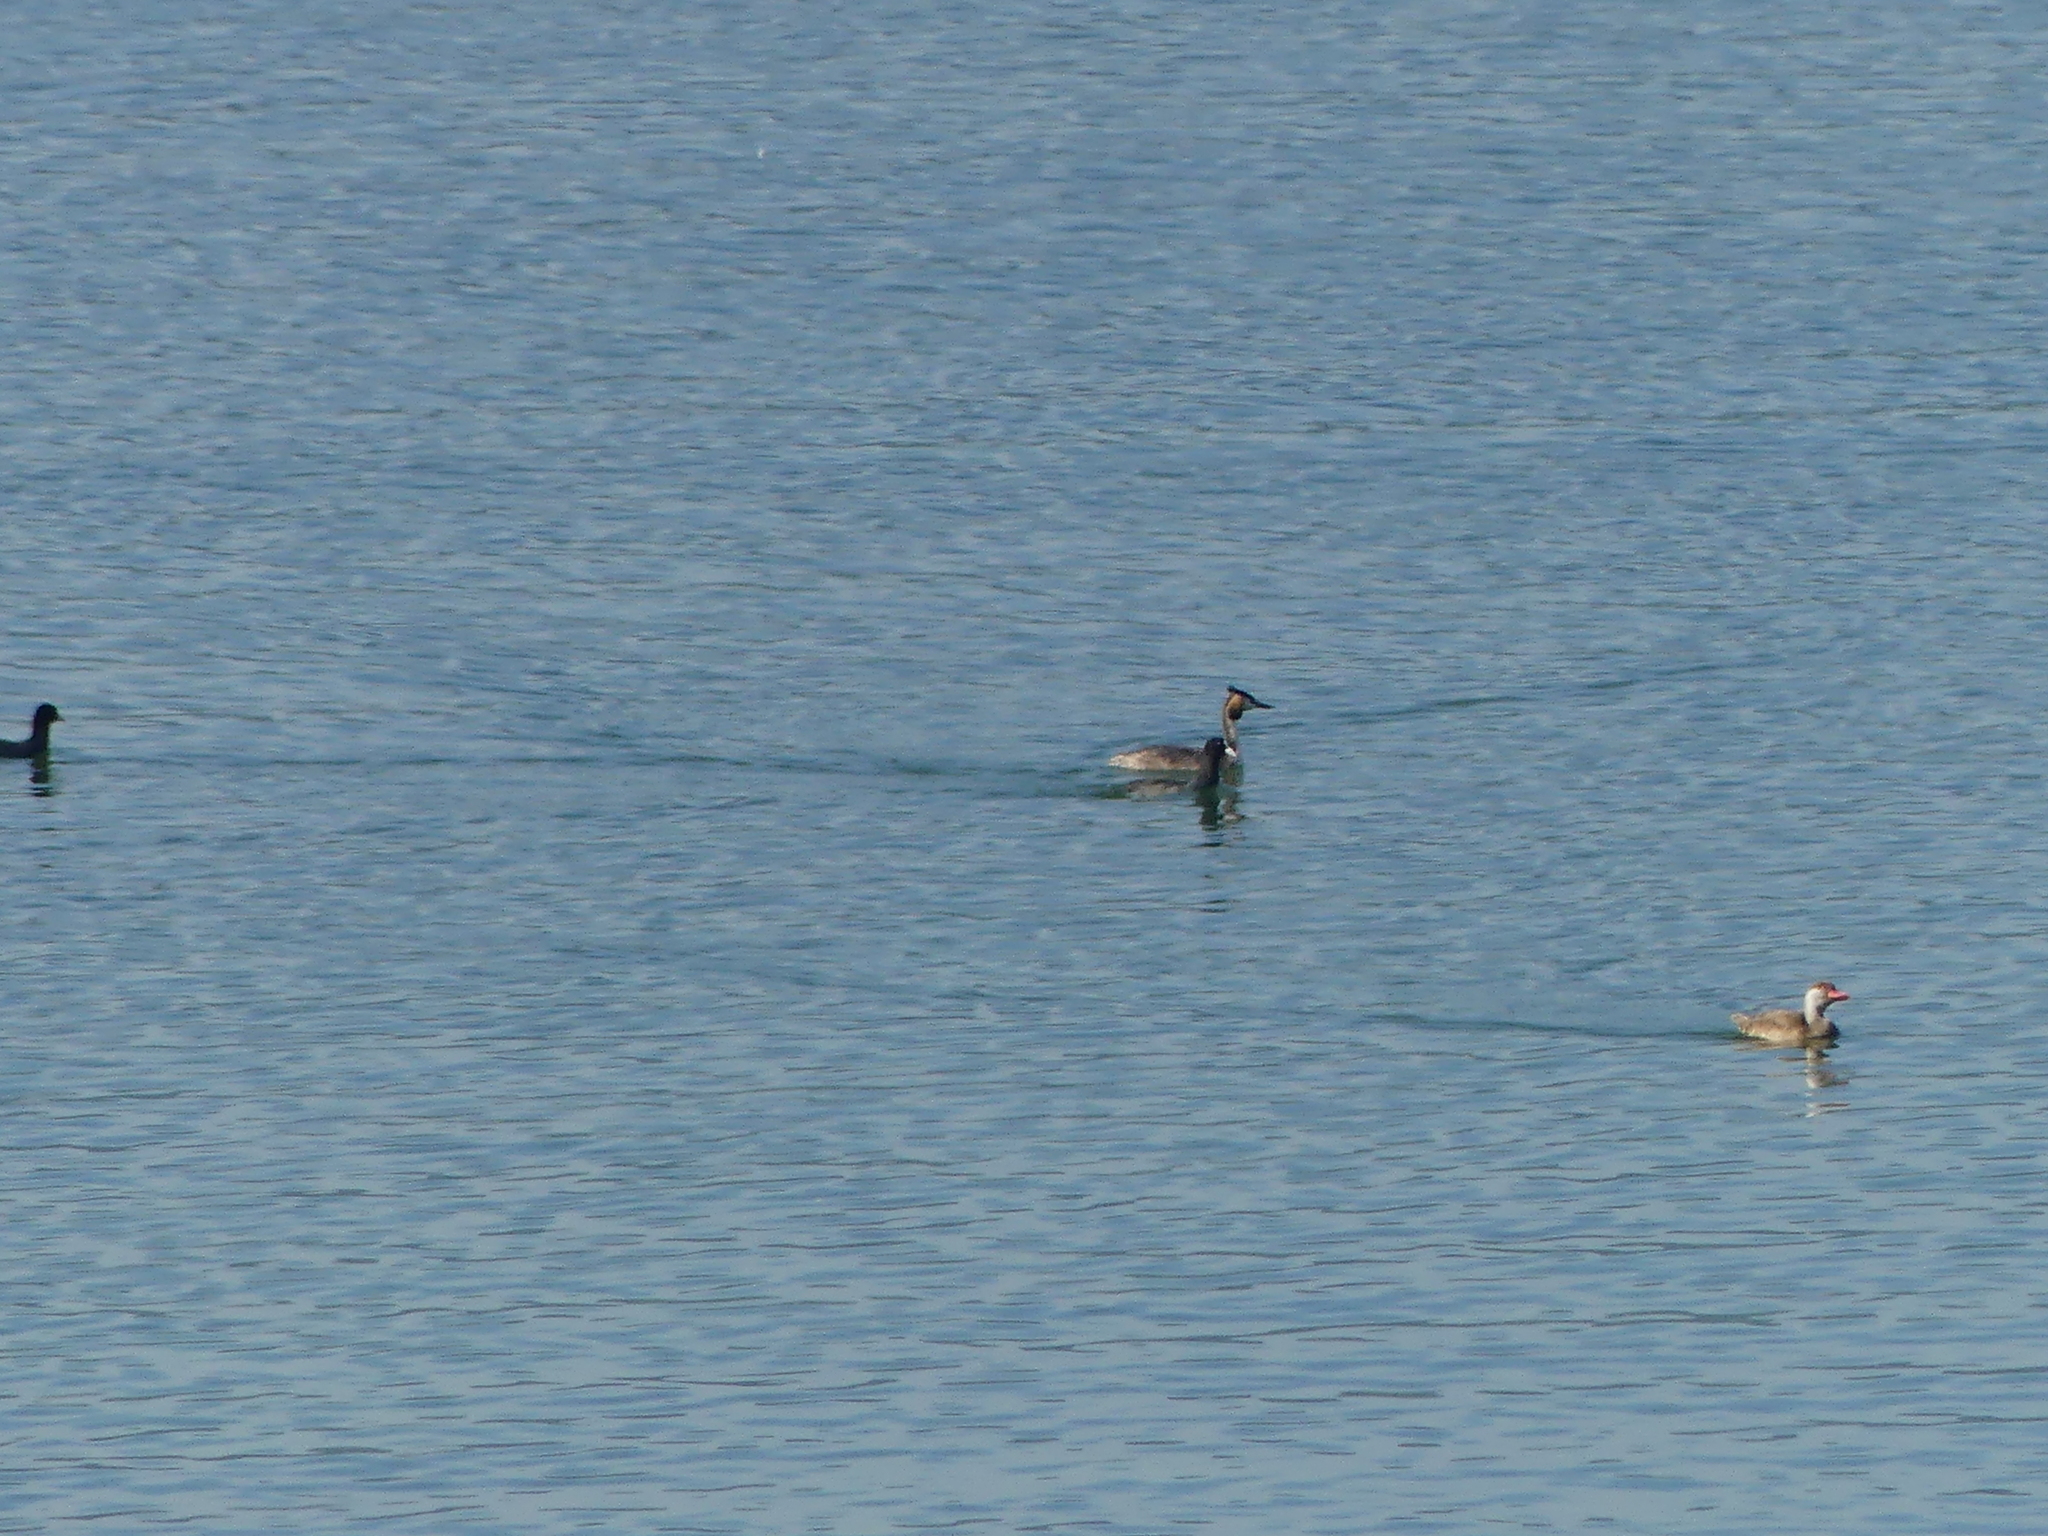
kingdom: Animalia
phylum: Chordata
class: Aves
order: Podicipediformes
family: Podicipedidae
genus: Podiceps
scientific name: Podiceps cristatus
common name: Great crested grebe
